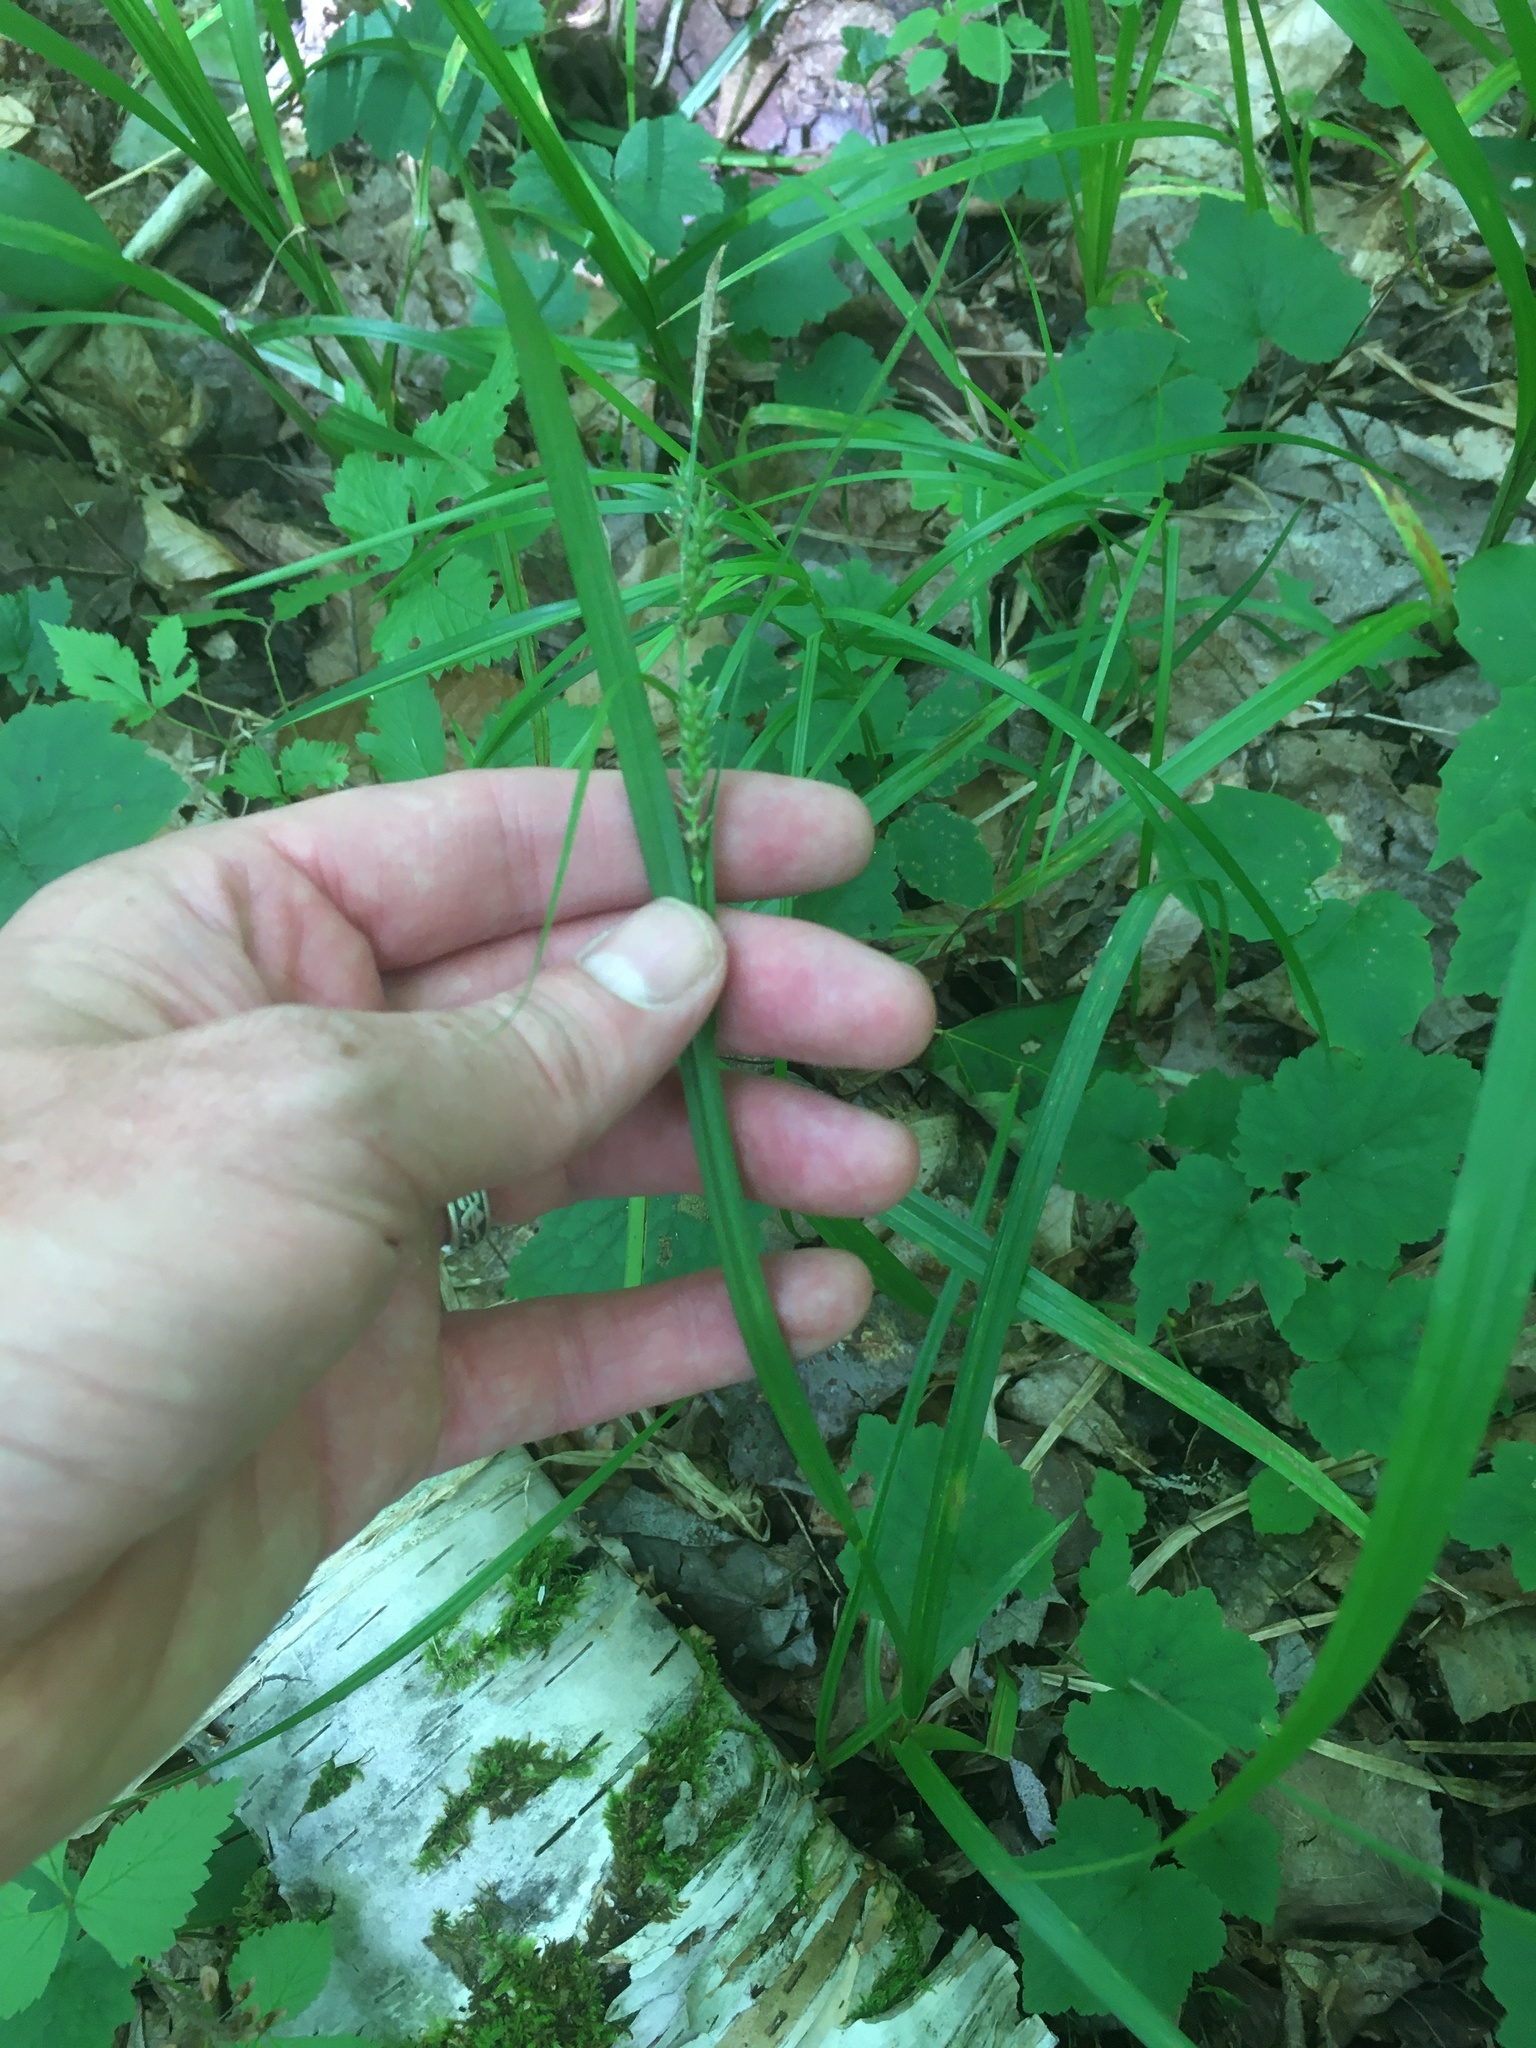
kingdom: Plantae
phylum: Tracheophyta
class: Liliopsida
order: Poales
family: Cyperaceae
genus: Carex
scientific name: Carex scabrata
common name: Eastern rough sedge
